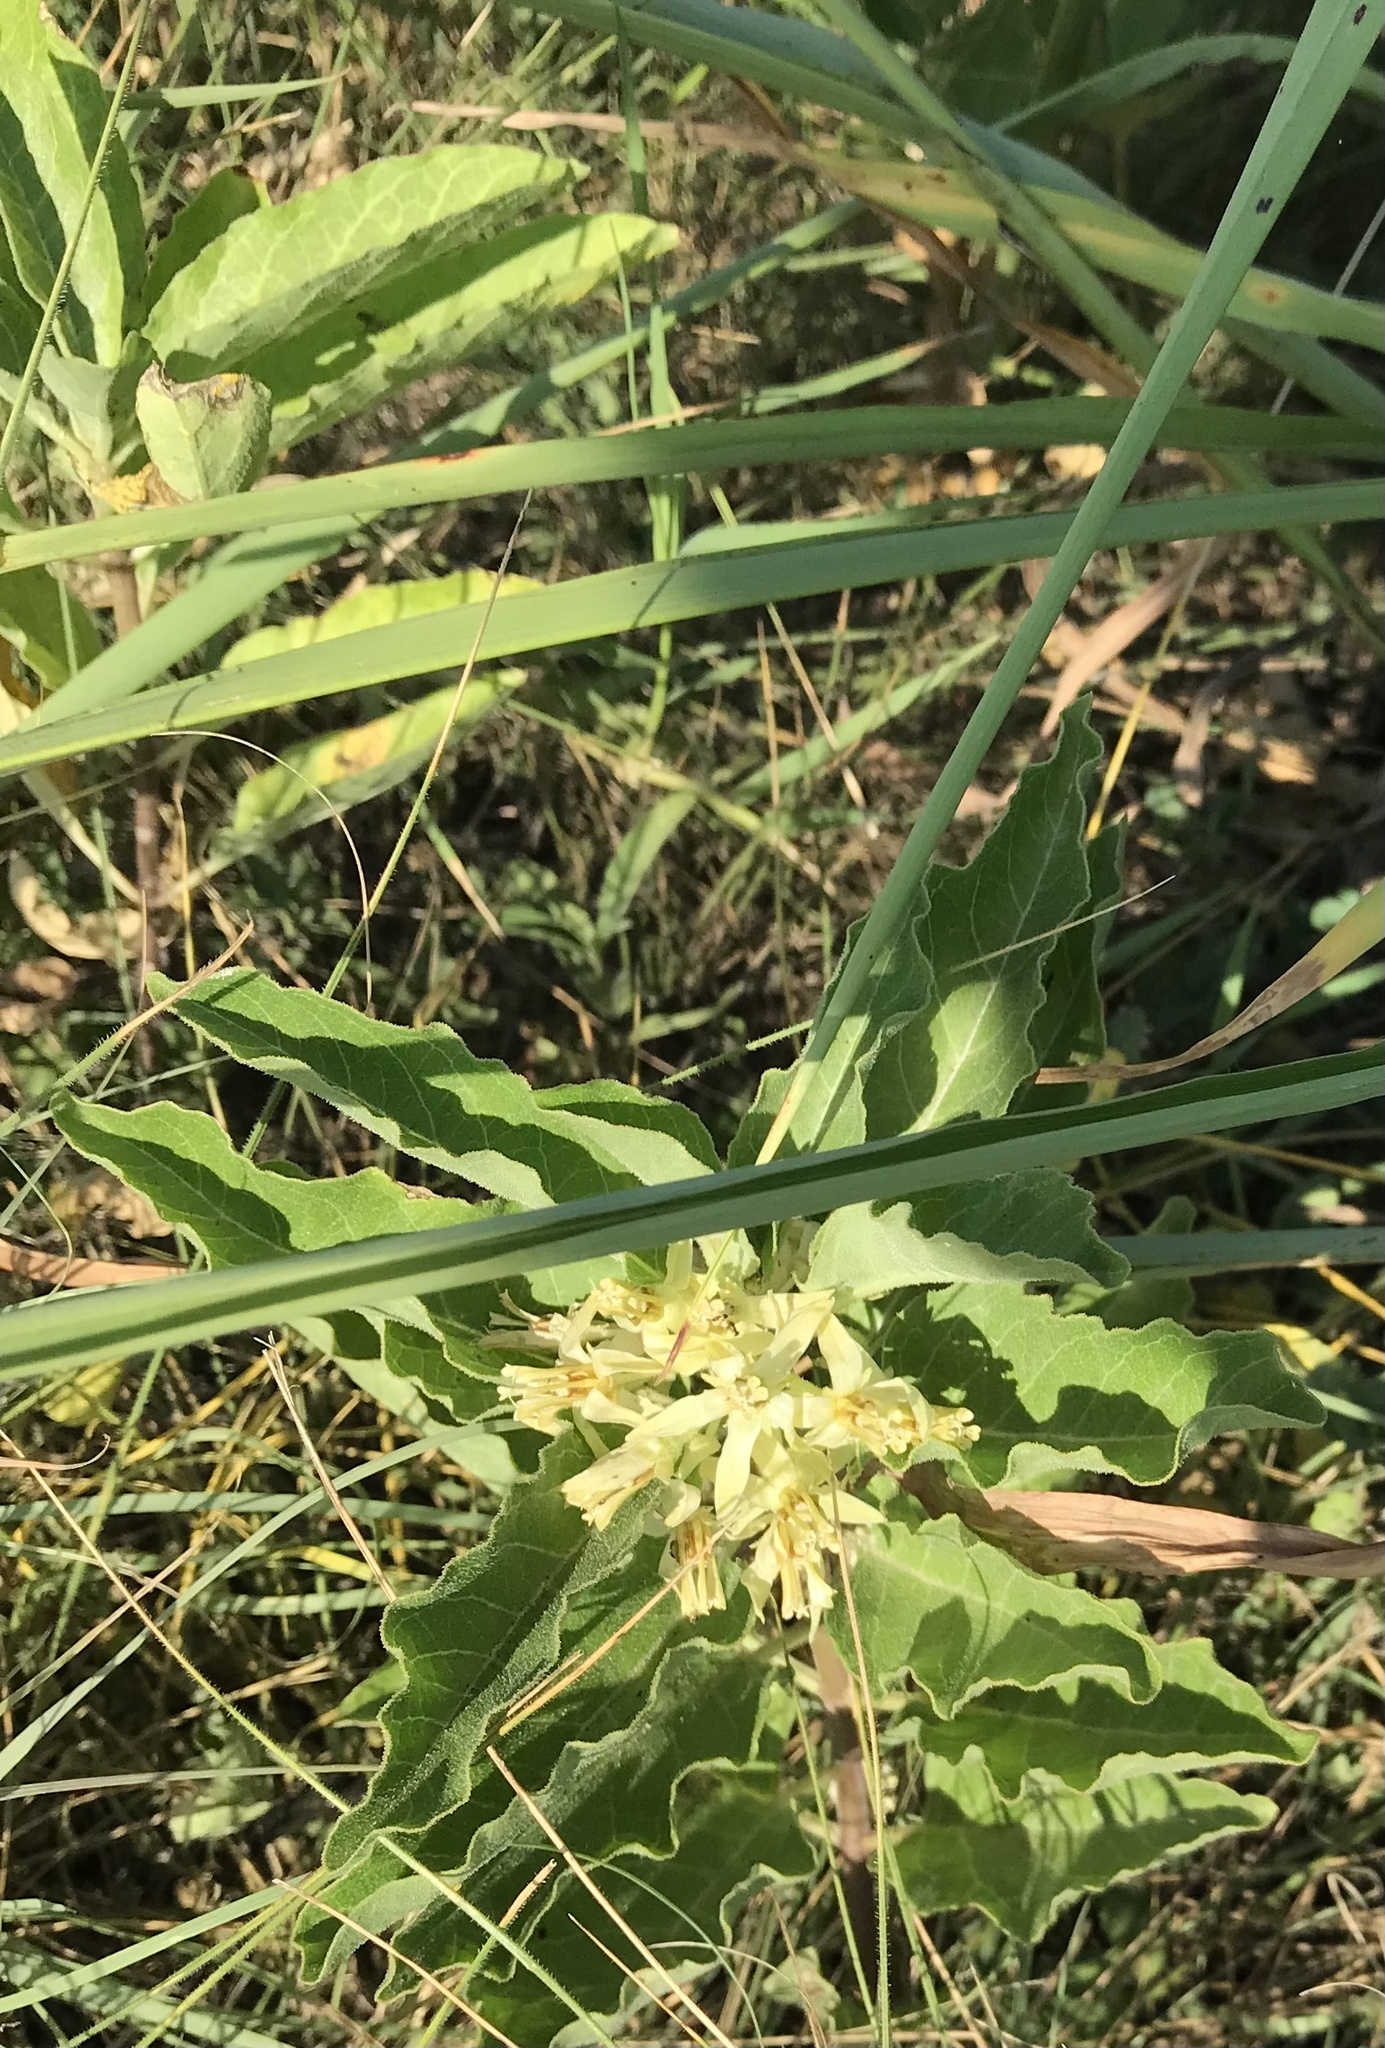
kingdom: Plantae
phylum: Tracheophyta
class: Magnoliopsida
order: Gentianales
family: Apocynaceae
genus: Asclepias
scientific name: Asclepias oenotheroides
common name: Zizotes milkweed
